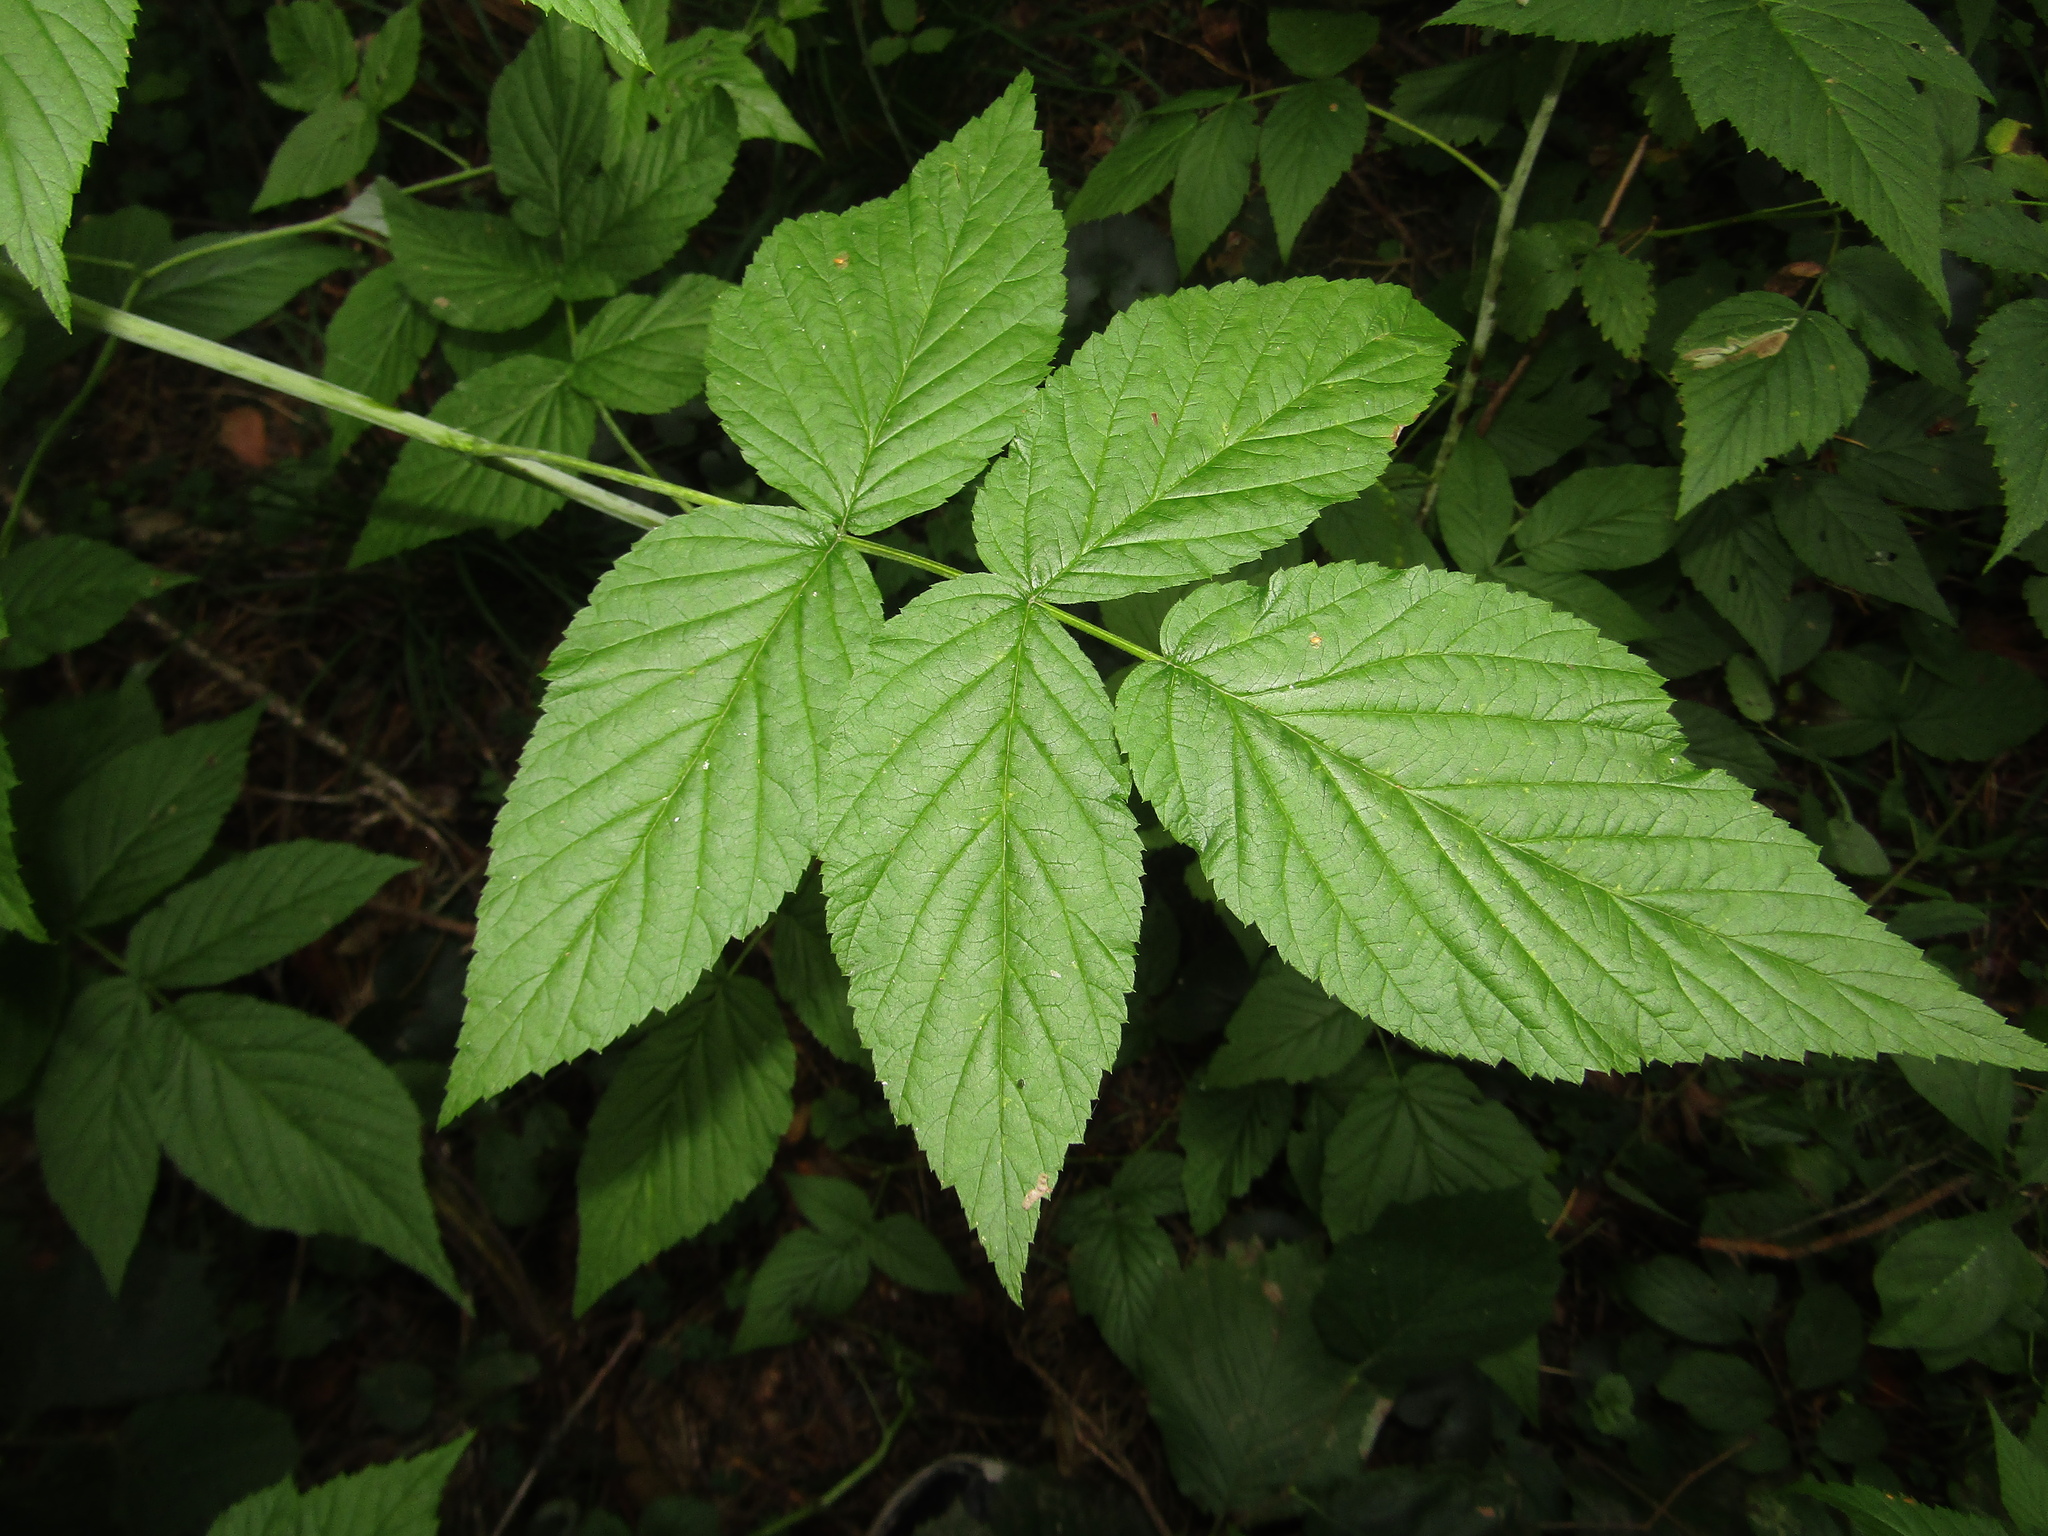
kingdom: Plantae
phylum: Tracheophyta
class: Magnoliopsida
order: Rosales
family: Rosaceae
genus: Rubus
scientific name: Rubus idaeus
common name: Raspberry
